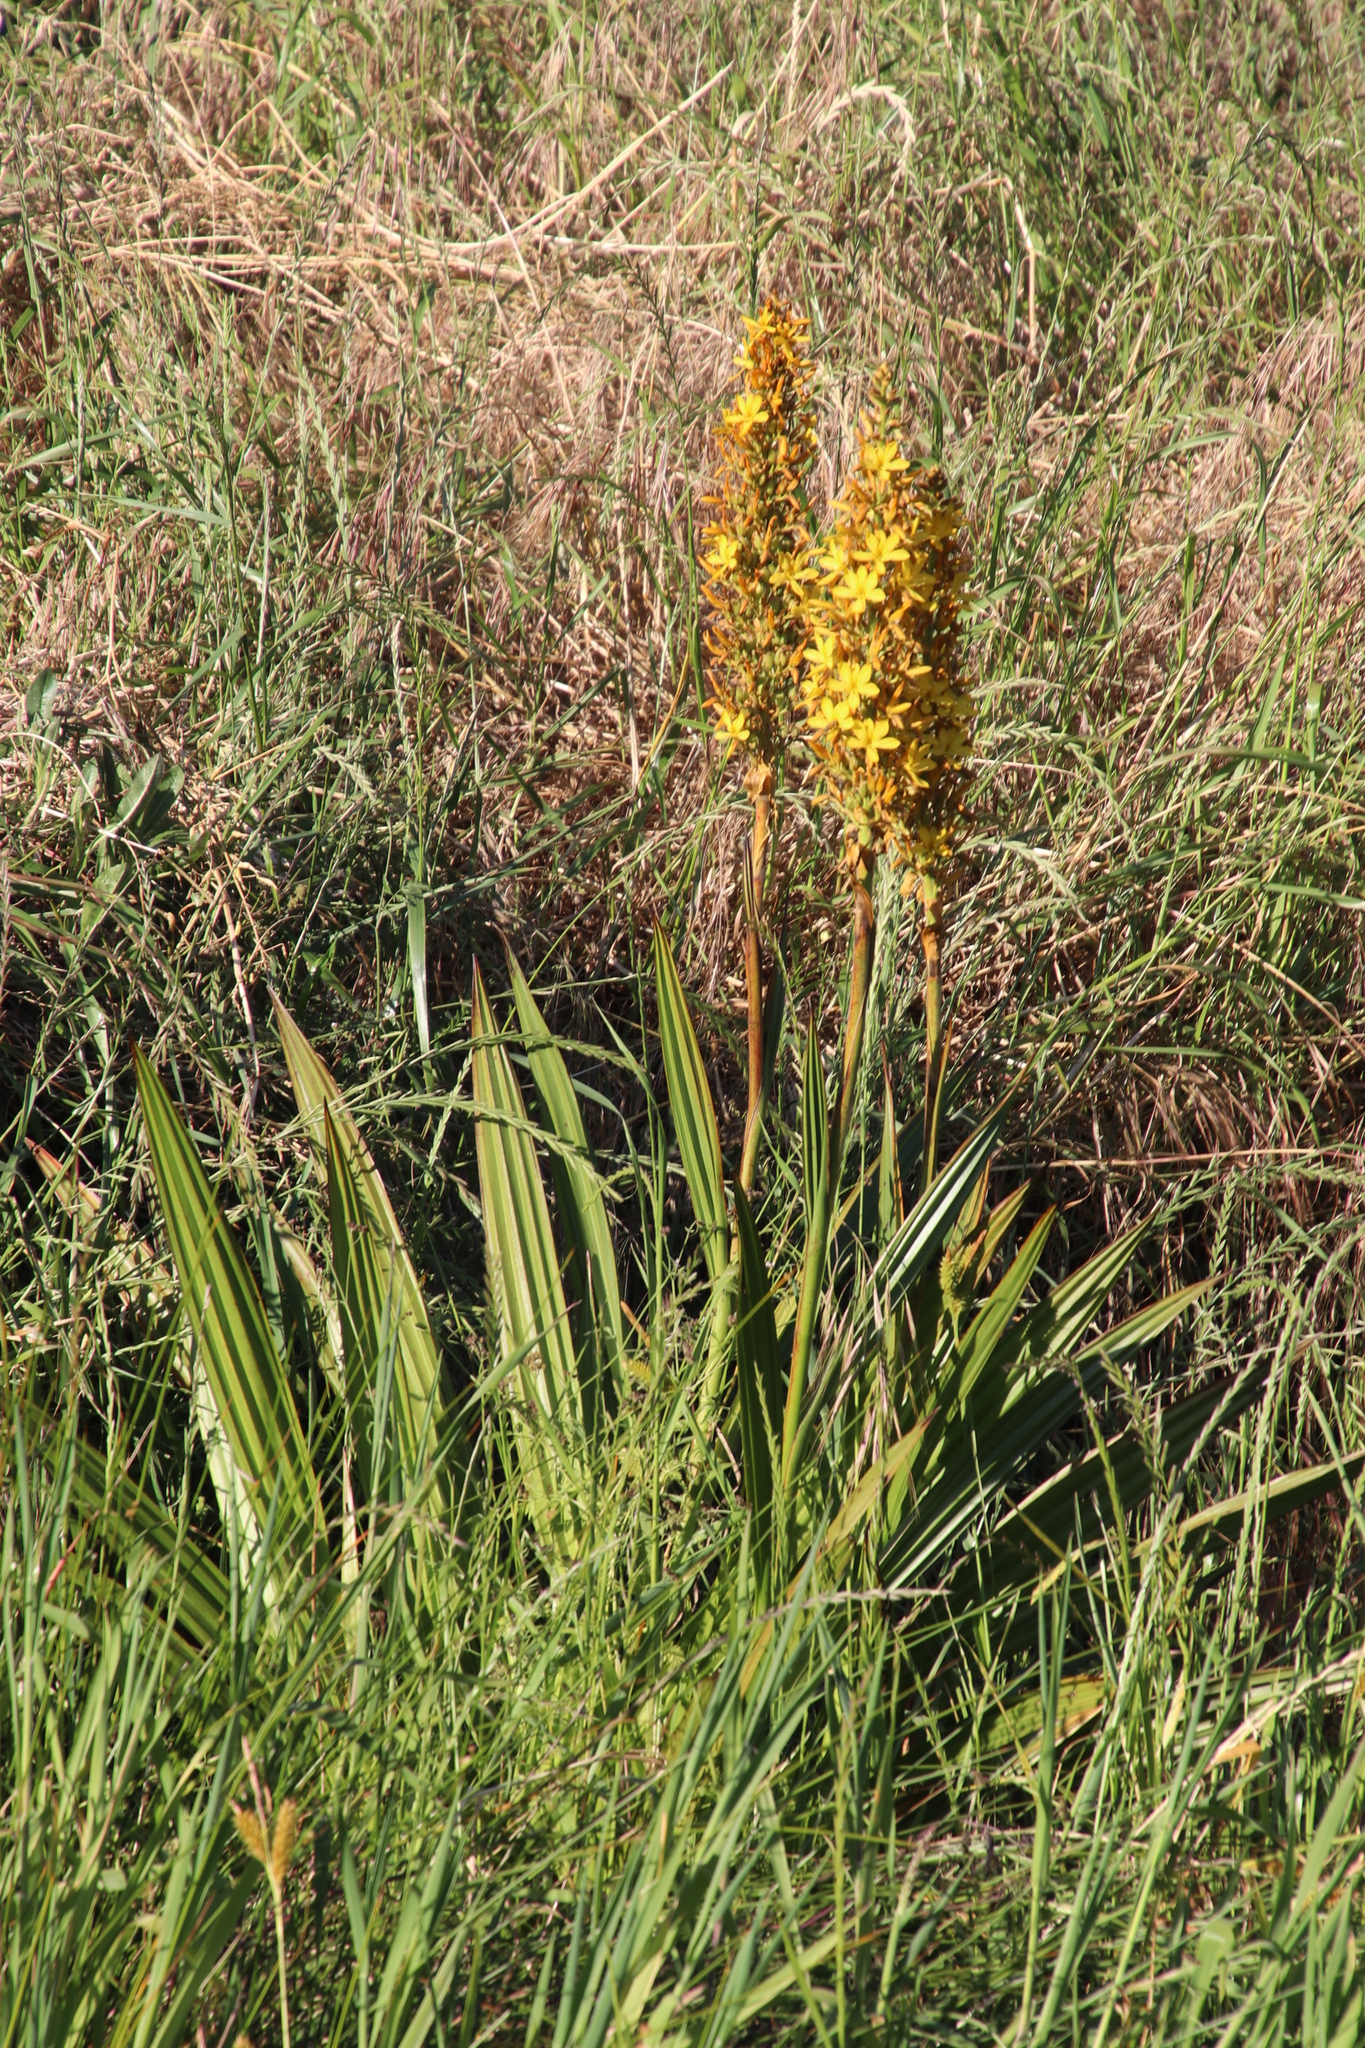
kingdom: Plantae
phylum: Tracheophyta
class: Liliopsida
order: Commelinales
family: Haemodoraceae
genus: Wachendorfia
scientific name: Wachendorfia thyrsiflora
